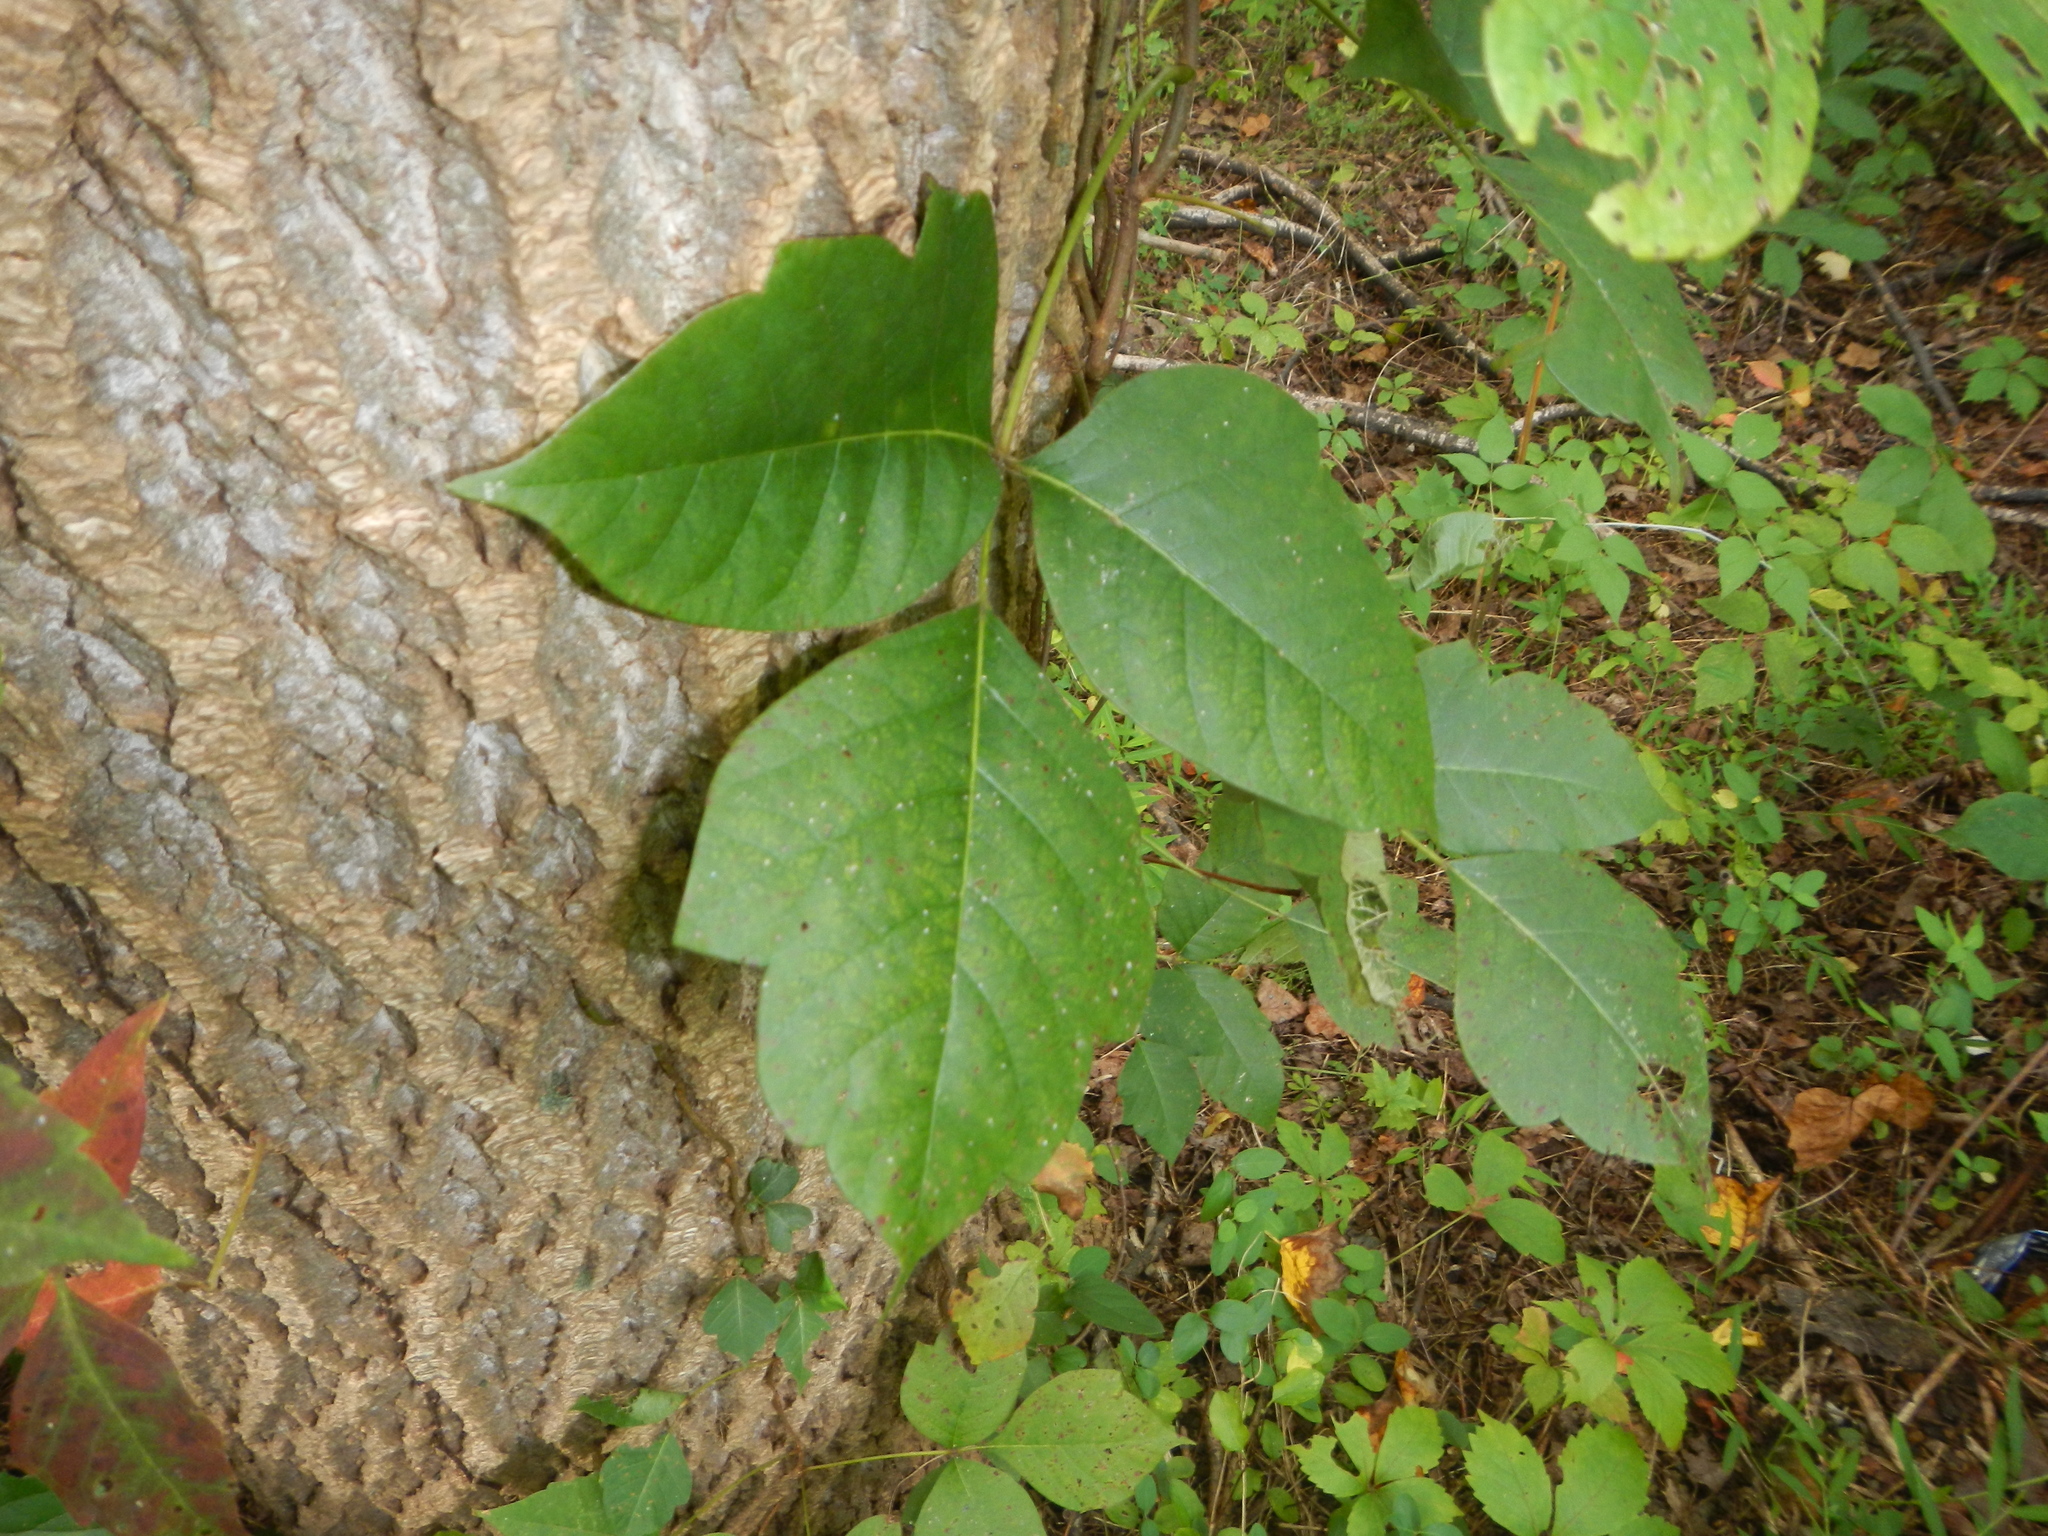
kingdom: Plantae
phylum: Tracheophyta
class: Magnoliopsida
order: Sapindales
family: Anacardiaceae
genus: Toxicodendron
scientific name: Toxicodendron radicans
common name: Poison ivy
